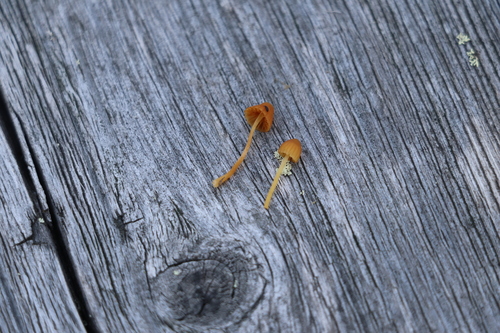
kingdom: Fungi
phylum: Basidiomycota
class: Agaricomycetes
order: Agaricales
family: Hymenogastraceae
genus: Galerina
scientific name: Galerina hypnorum
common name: Moss bell
